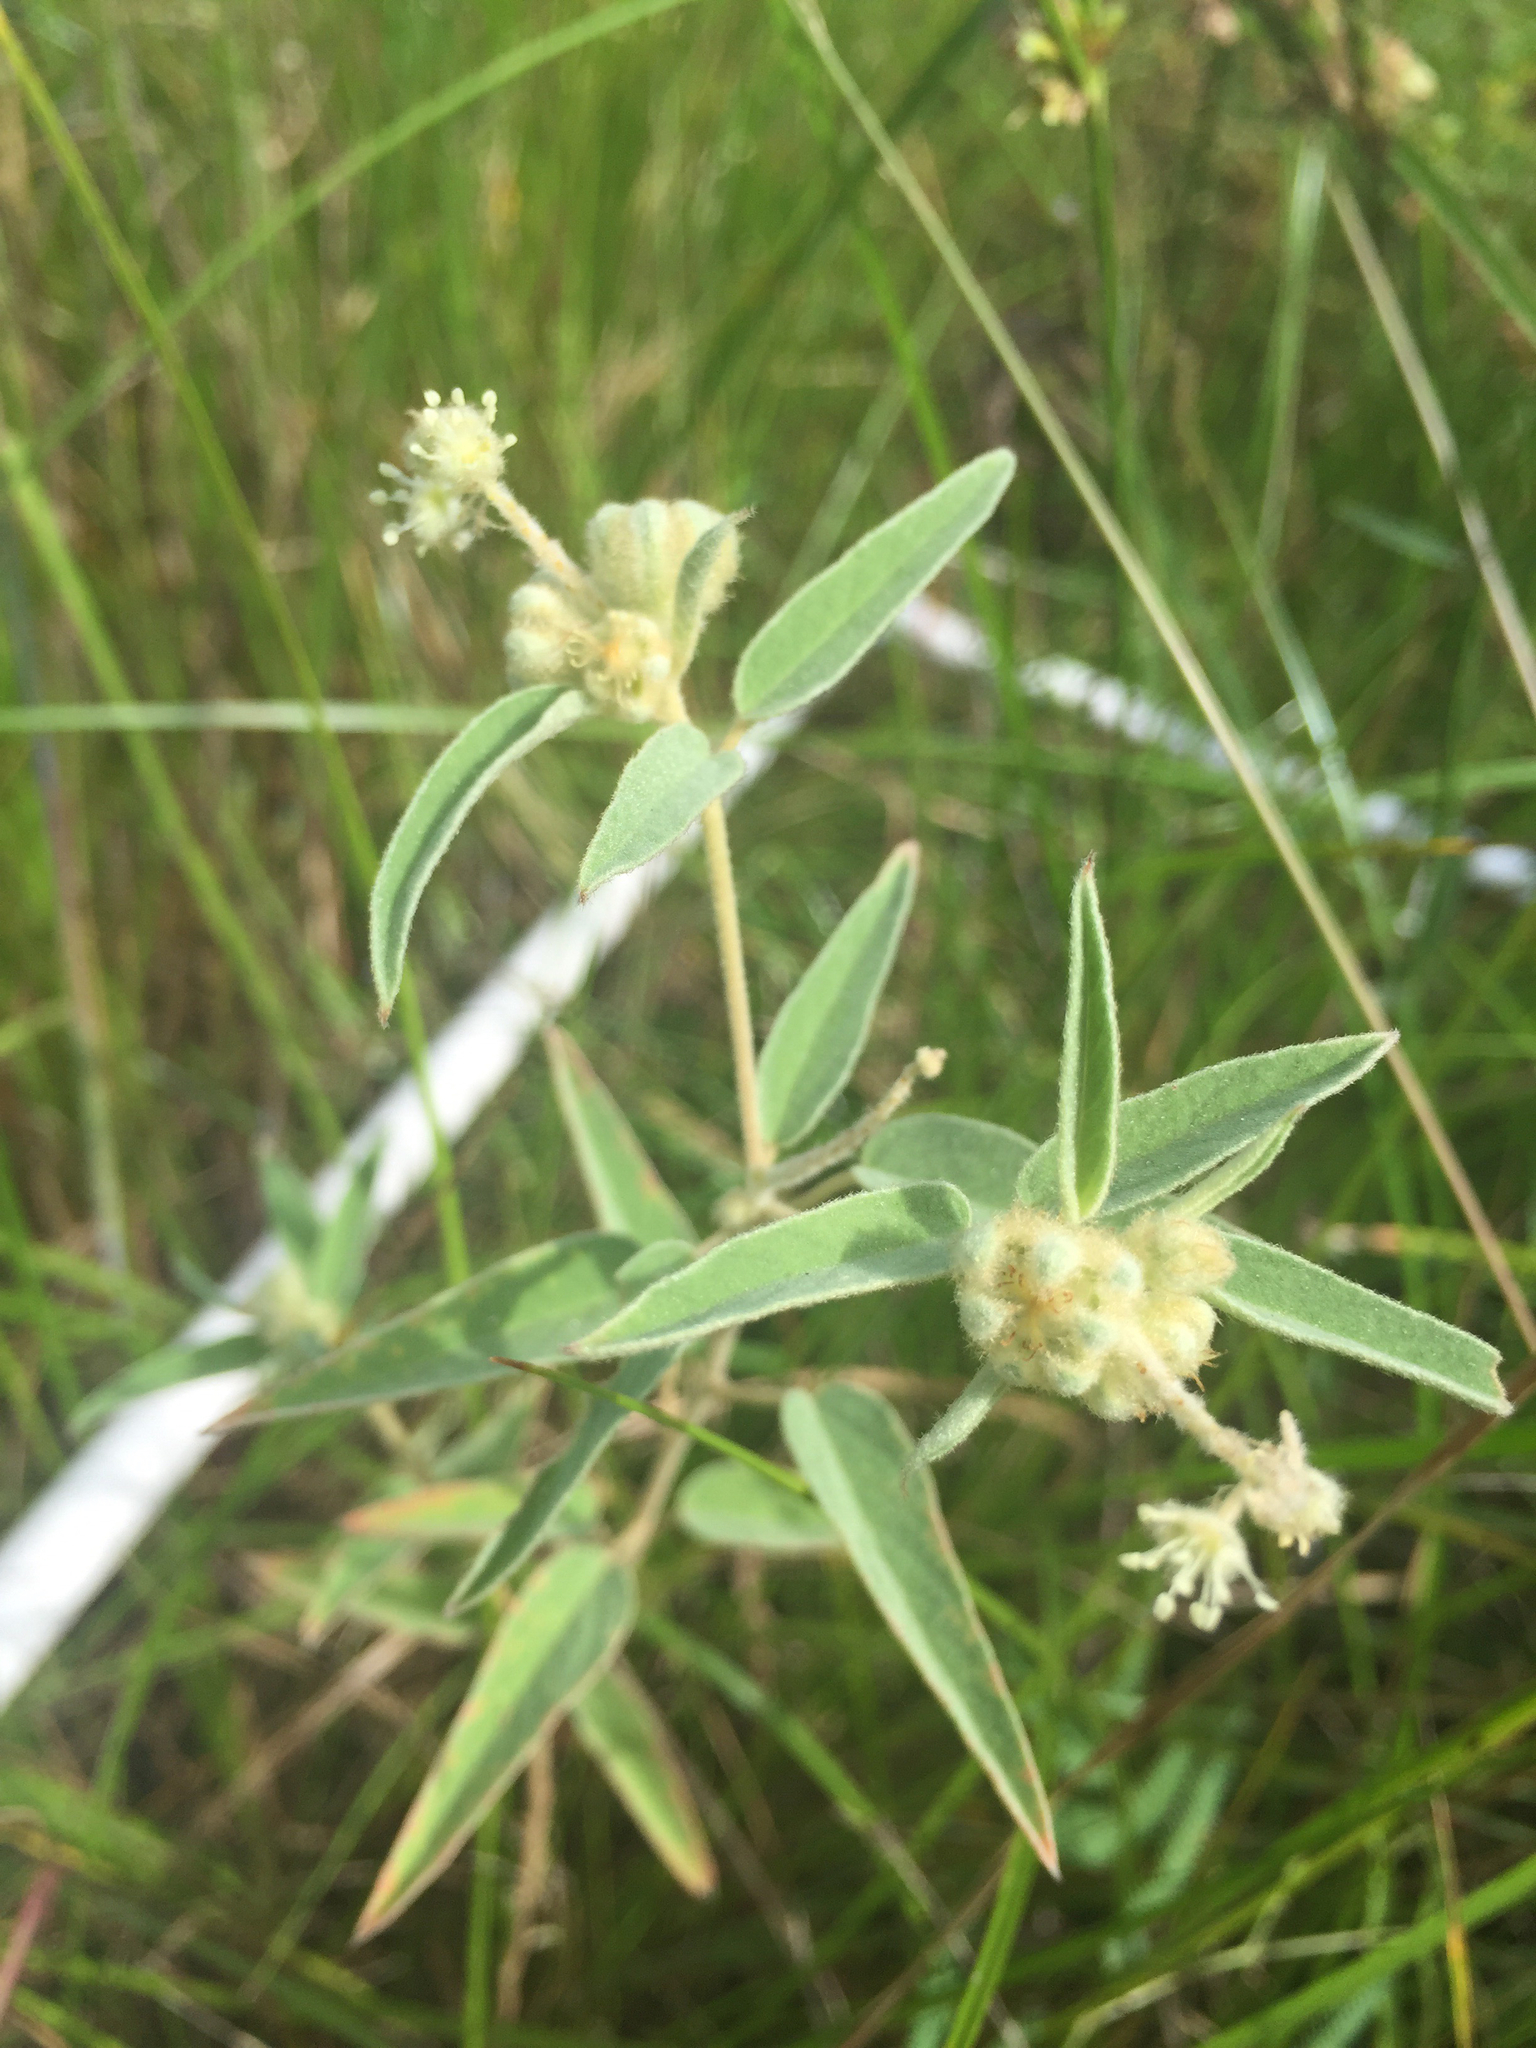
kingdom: Plantae
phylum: Tracheophyta
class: Magnoliopsida
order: Malpighiales
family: Euphorbiaceae
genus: Croton
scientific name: Croton lindheimeri
